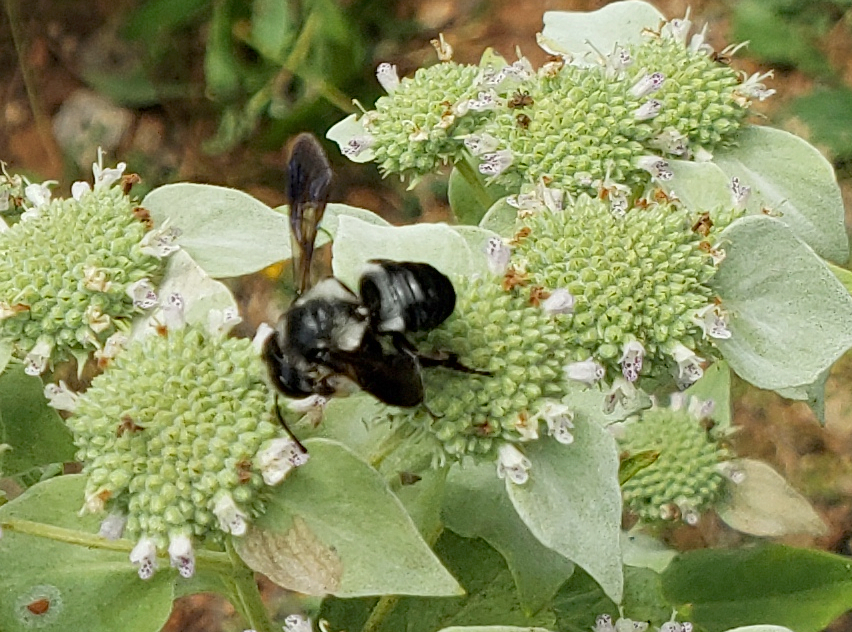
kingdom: Animalia
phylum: Arthropoda
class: Insecta
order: Hymenoptera
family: Megachilidae
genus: Megachile
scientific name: Megachile xylocopoides
